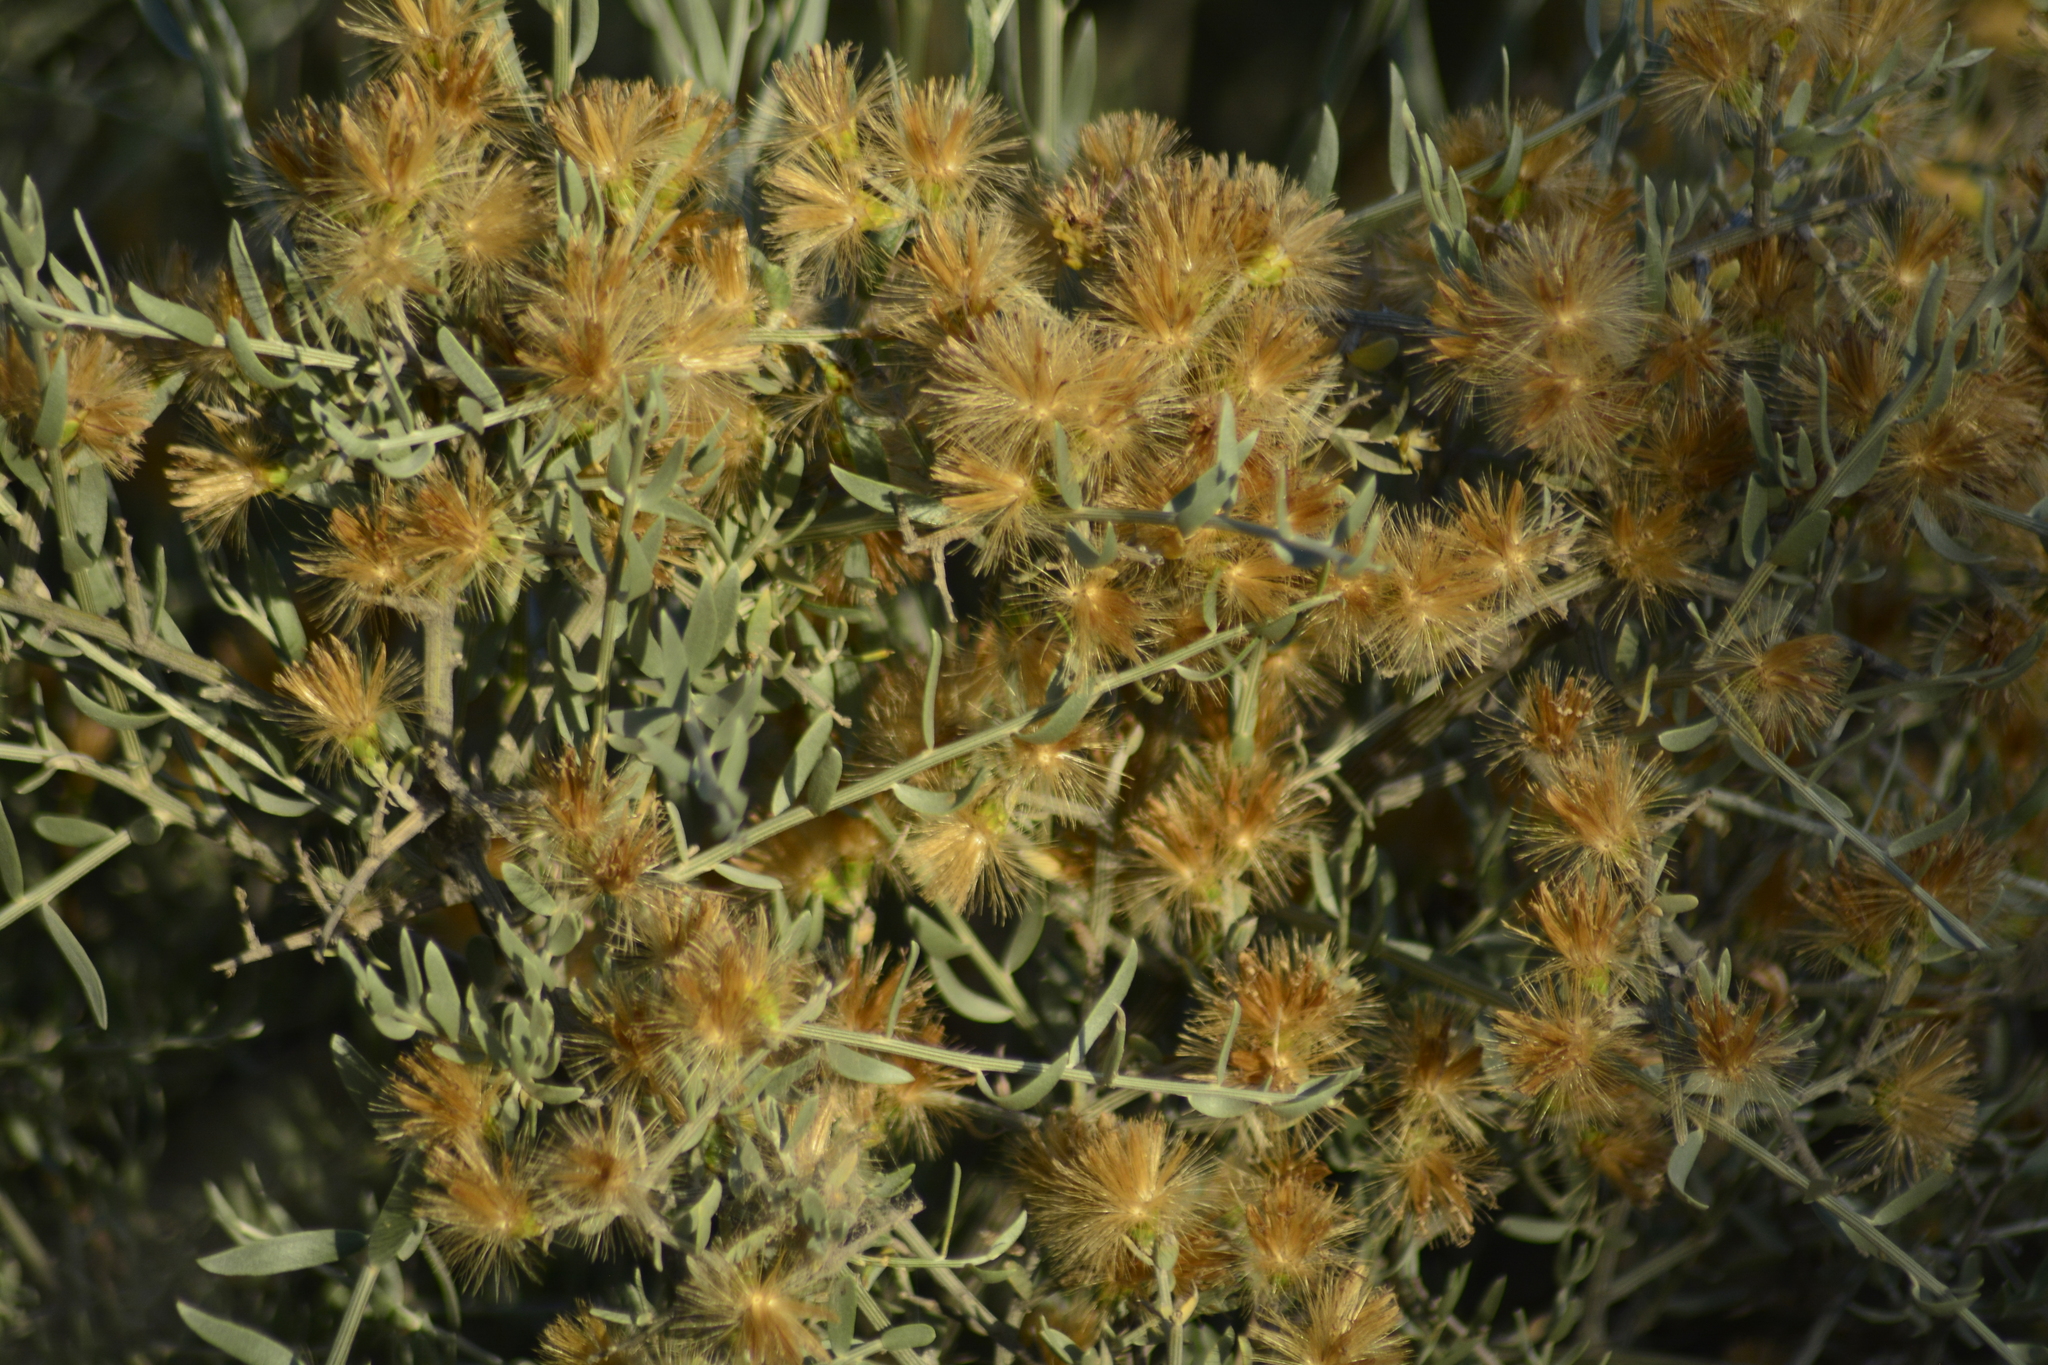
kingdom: Plantae
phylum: Tracheophyta
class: Magnoliopsida
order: Asterales
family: Asteraceae
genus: Cyclolepis
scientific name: Cyclolepis genistoides
